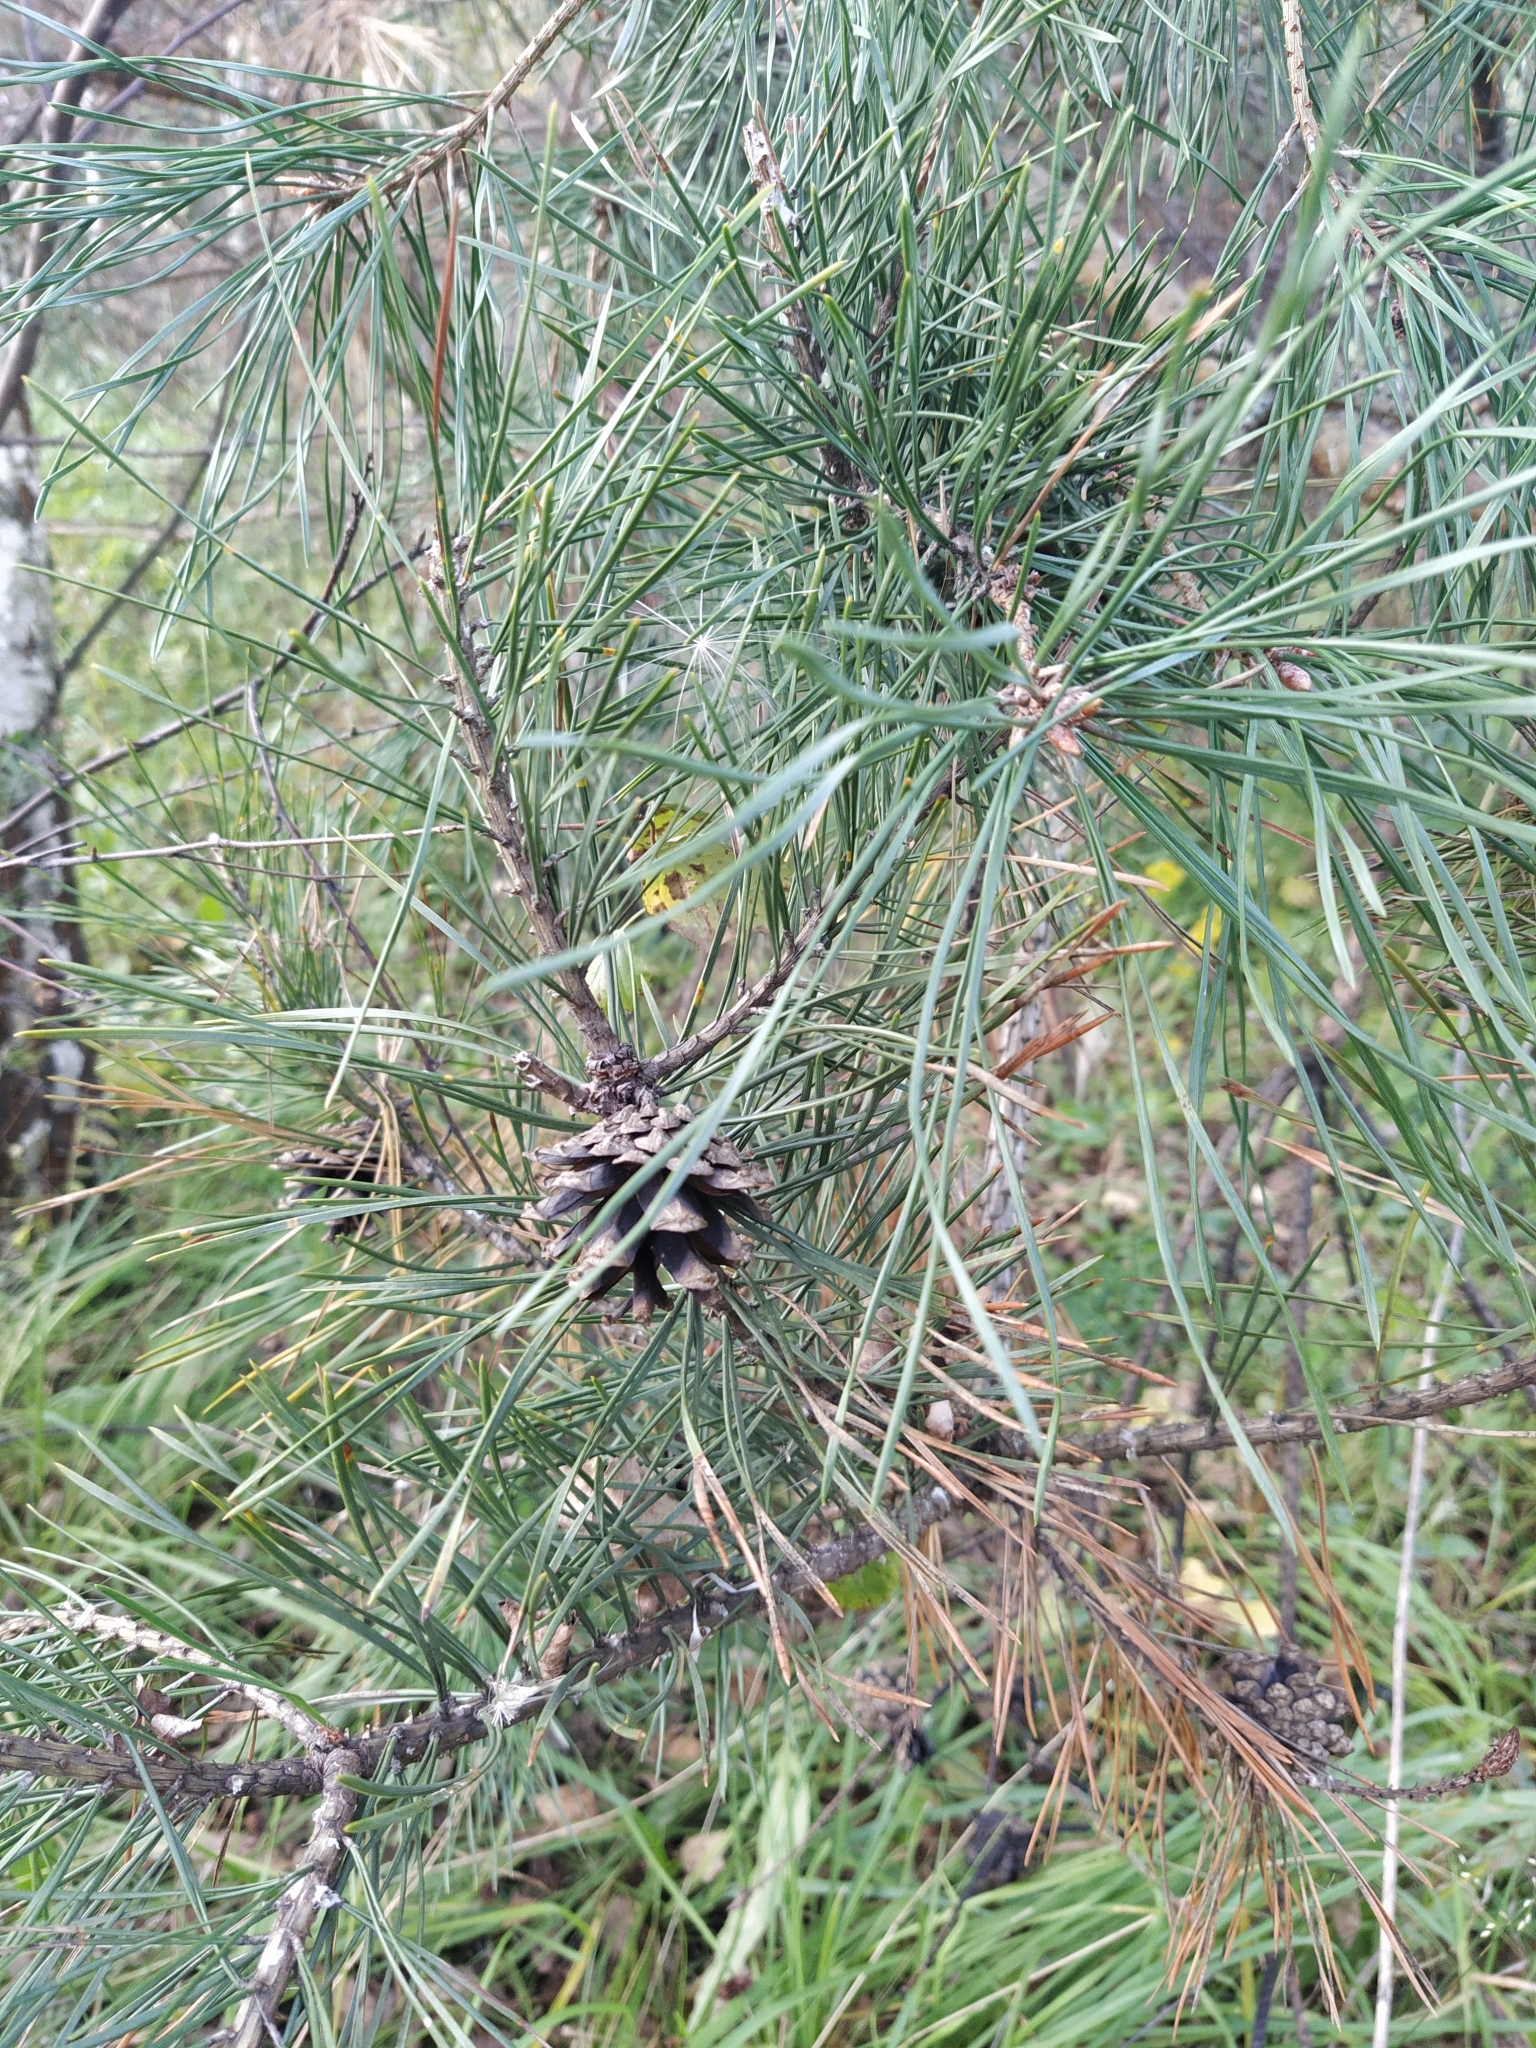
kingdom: Plantae
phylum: Tracheophyta
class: Pinopsida
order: Pinales
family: Pinaceae
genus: Pinus
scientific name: Pinus sylvestris
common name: Scots pine
